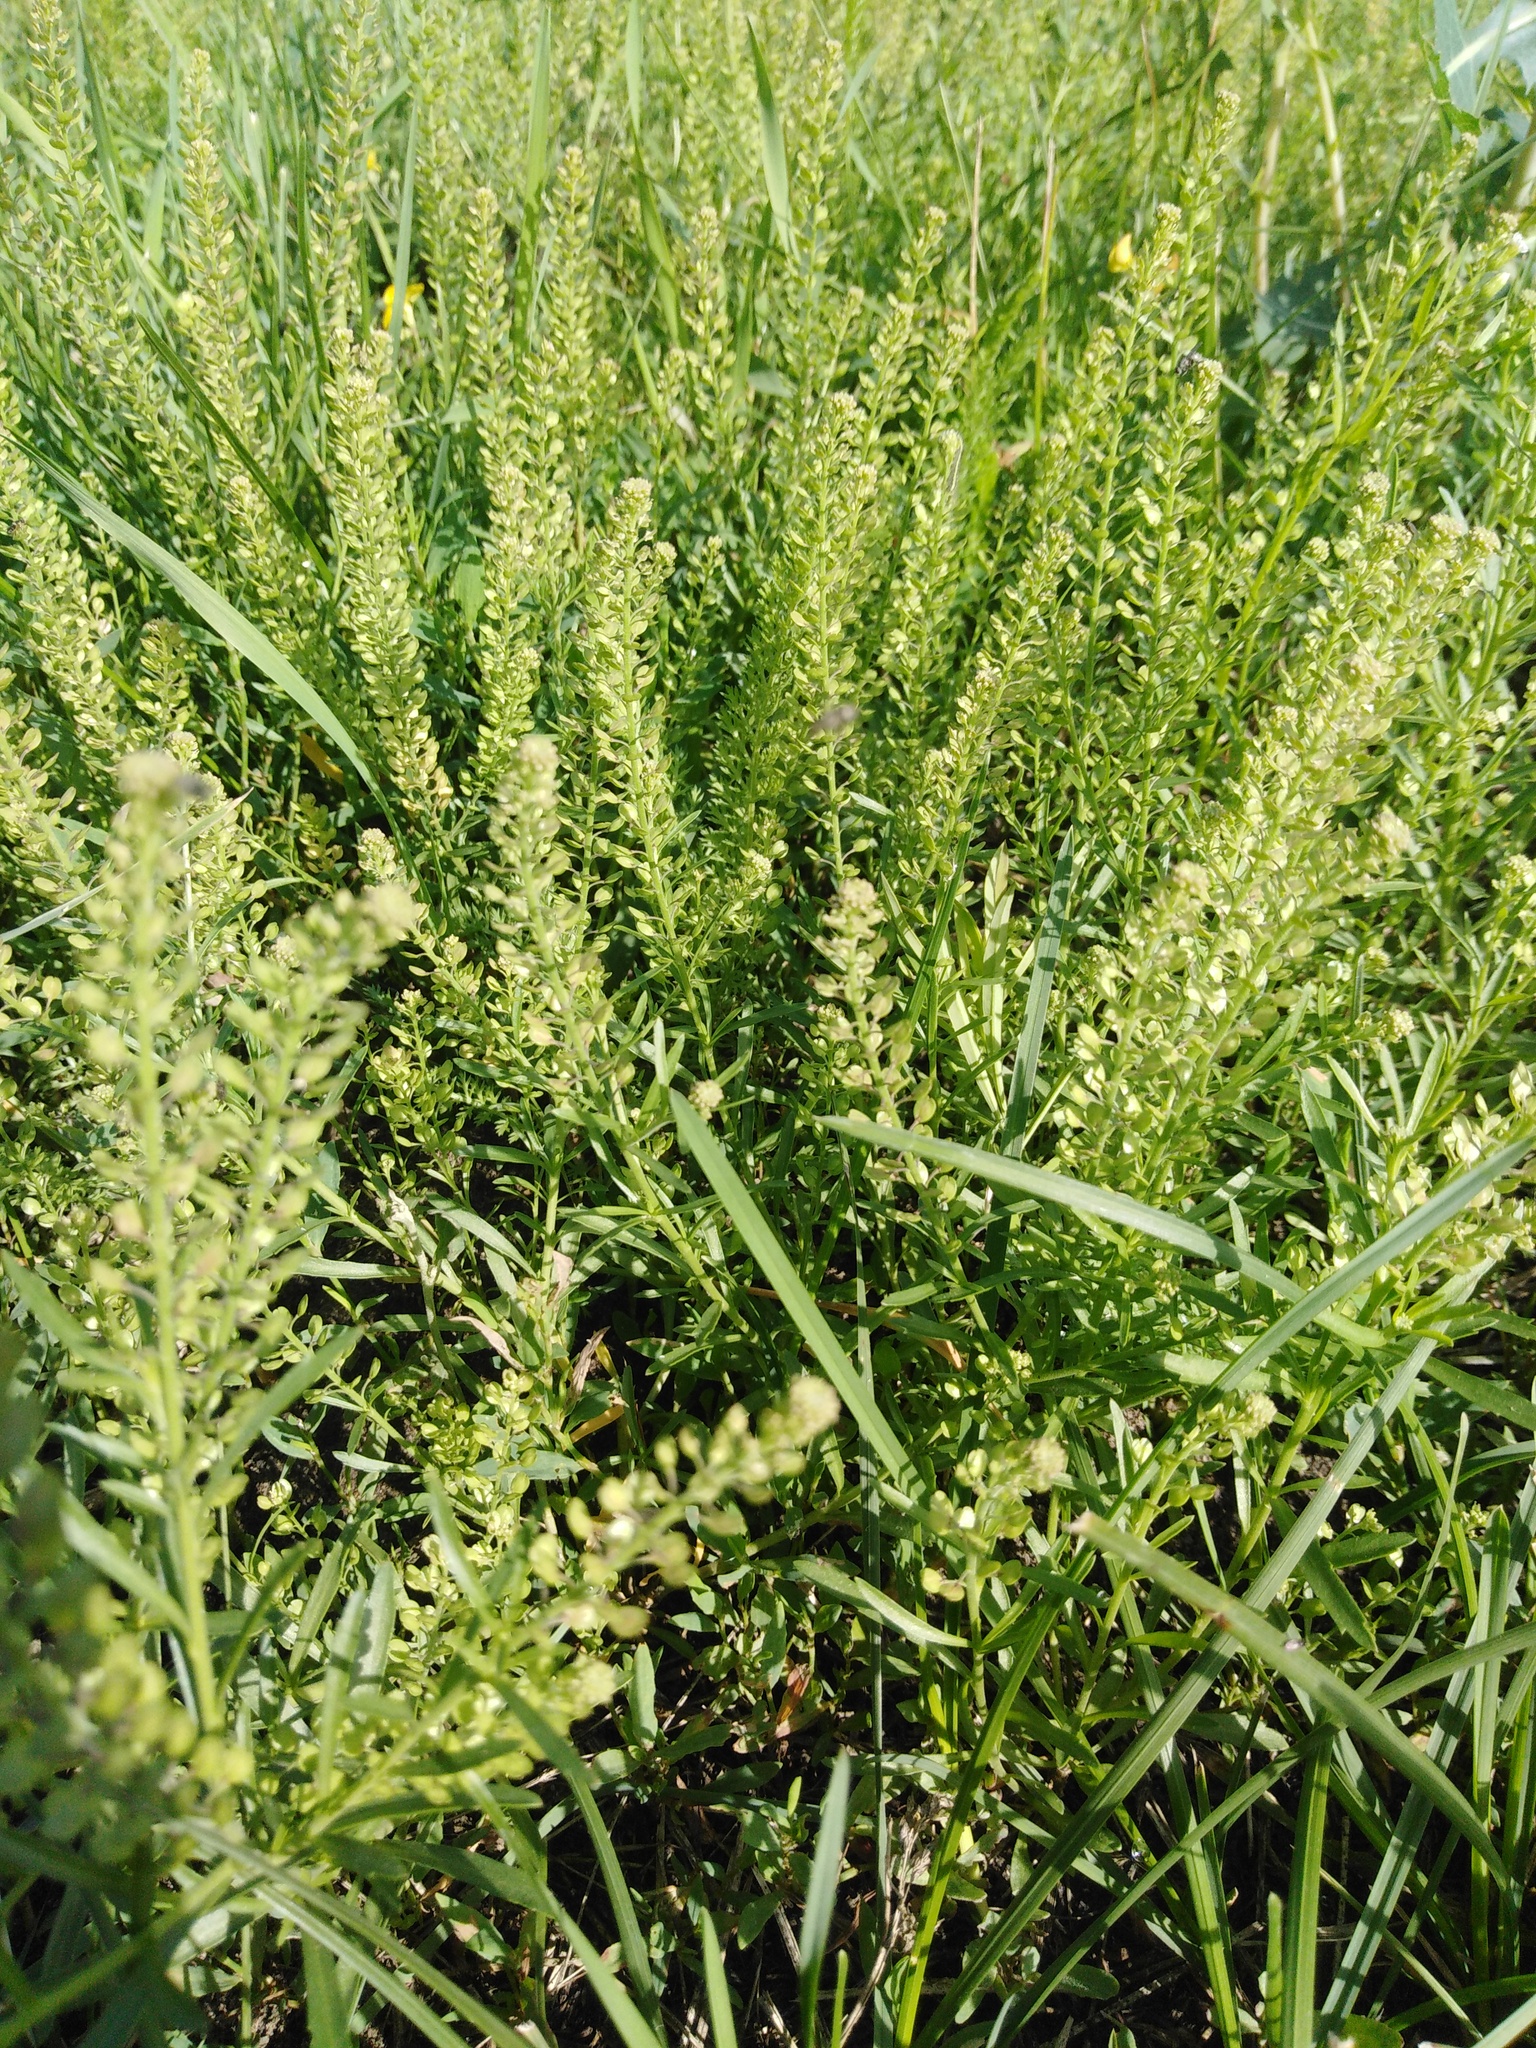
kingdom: Plantae
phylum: Tracheophyta
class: Magnoliopsida
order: Brassicales
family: Brassicaceae
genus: Lepidium
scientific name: Lepidium densiflorum
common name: Miner's pepperwort
